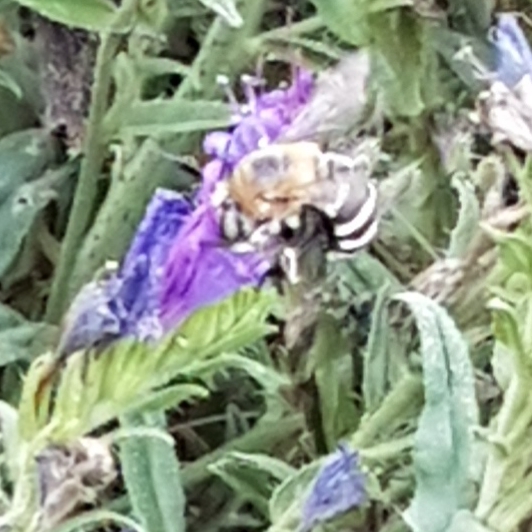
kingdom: Animalia
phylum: Arthropoda
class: Insecta
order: Hymenoptera
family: Apidae
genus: Amegilla
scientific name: Amegilla quadrifasciata
